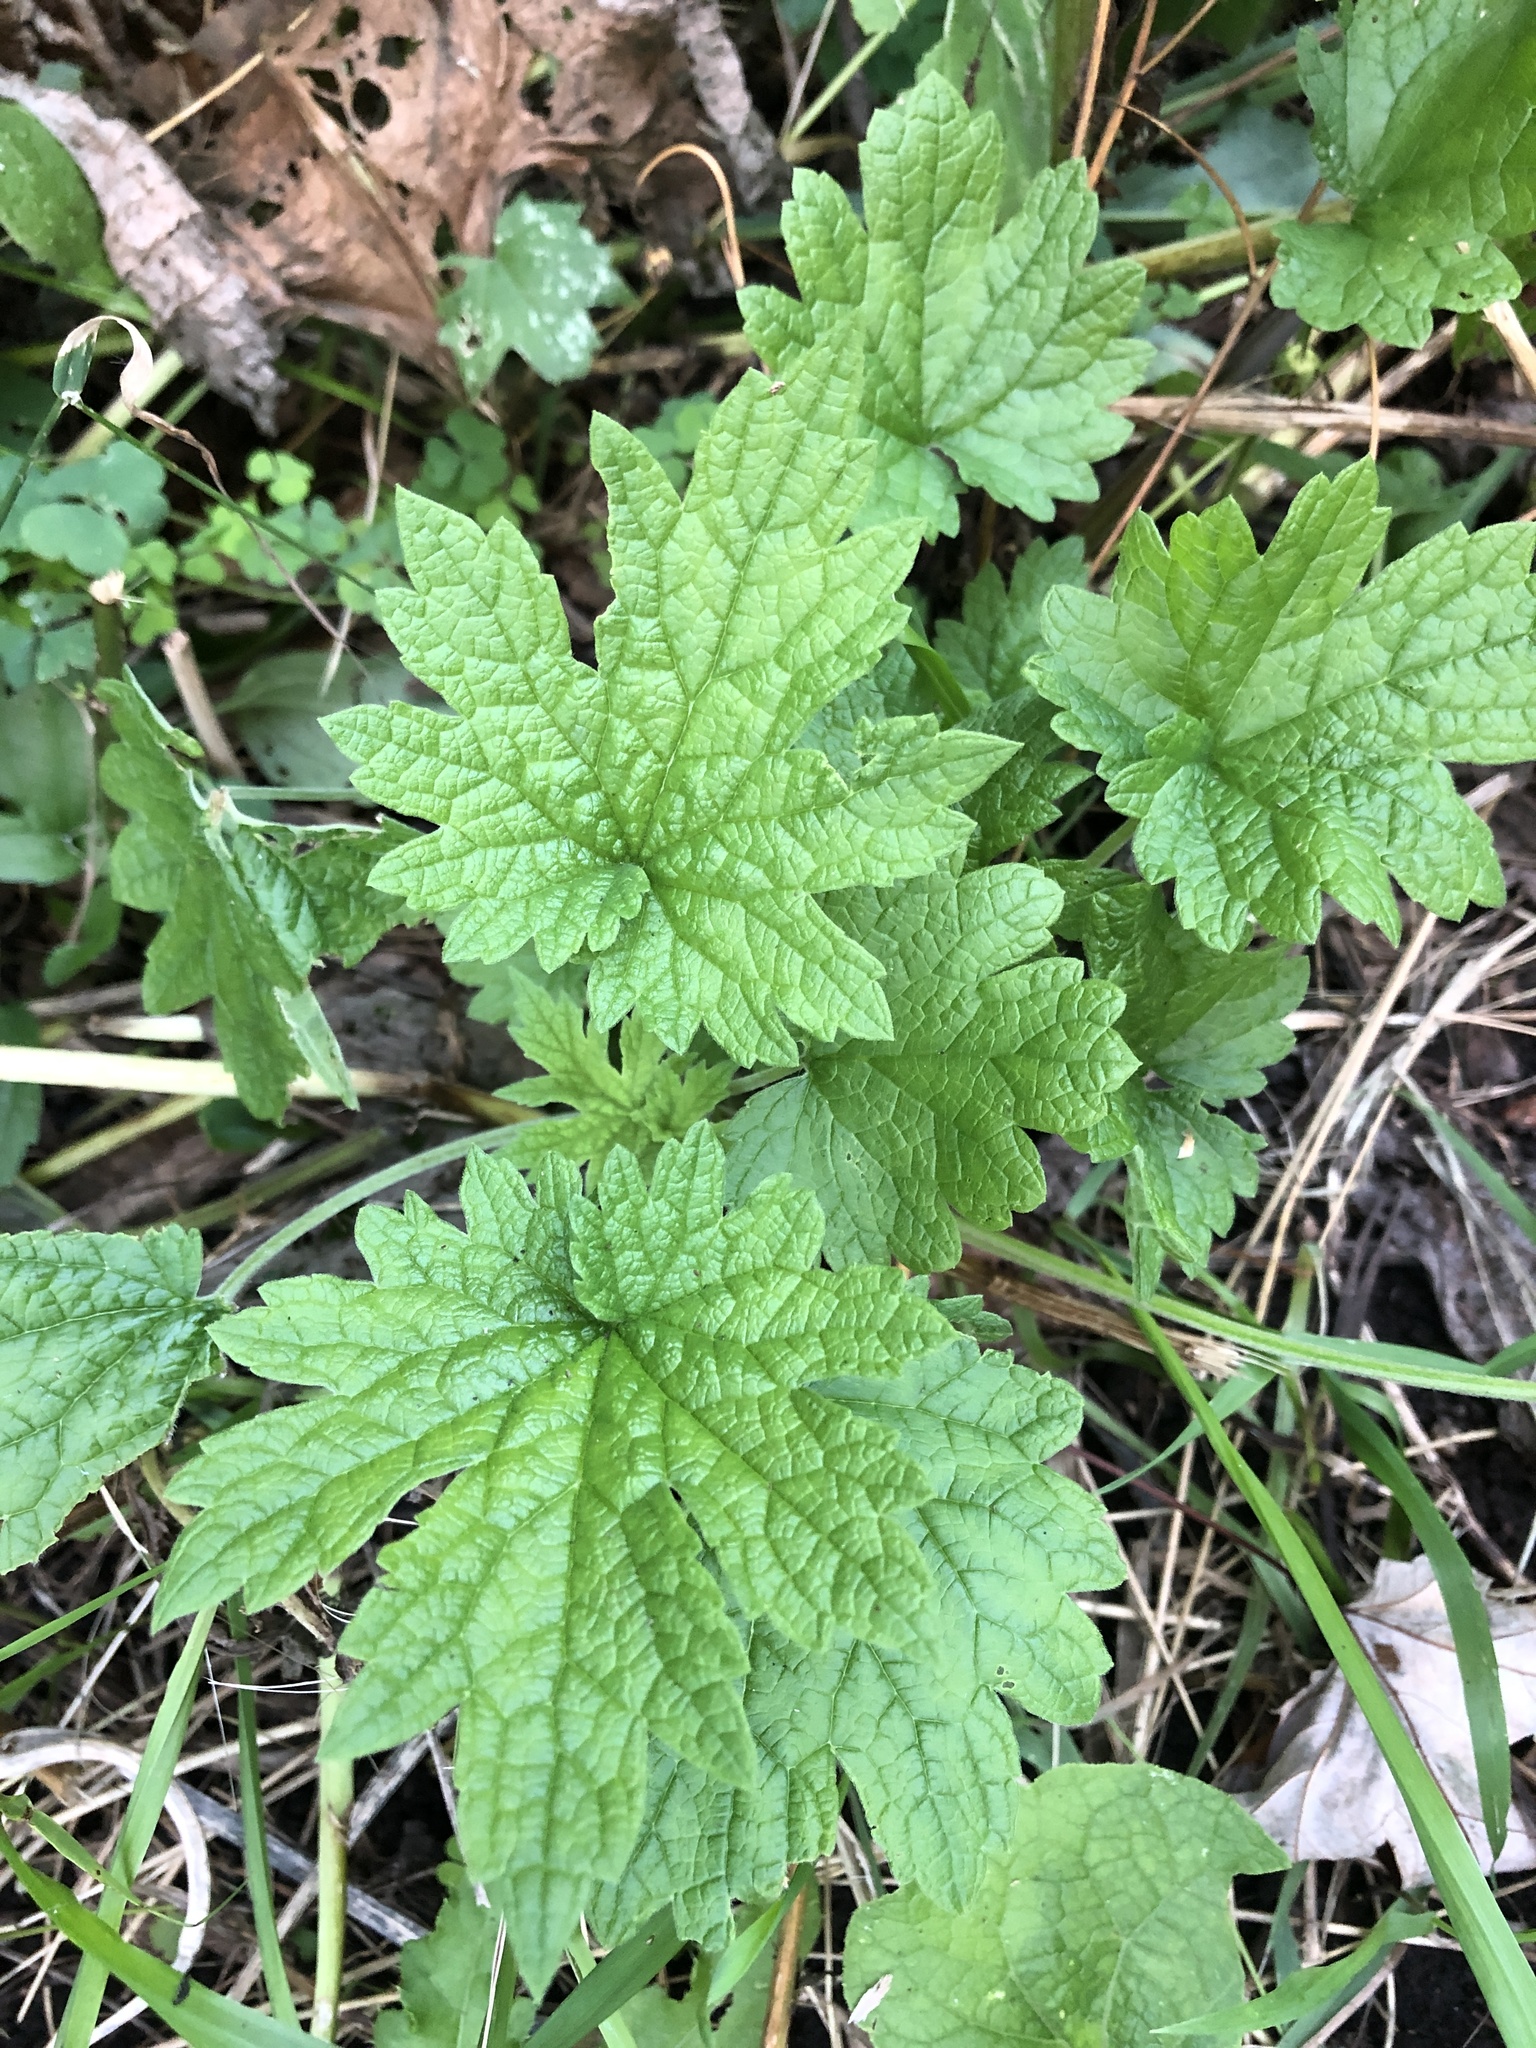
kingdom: Plantae
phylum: Tracheophyta
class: Magnoliopsida
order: Lamiales
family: Lamiaceae
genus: Leonurus
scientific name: Leonurus cardiaca
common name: Motherwort
